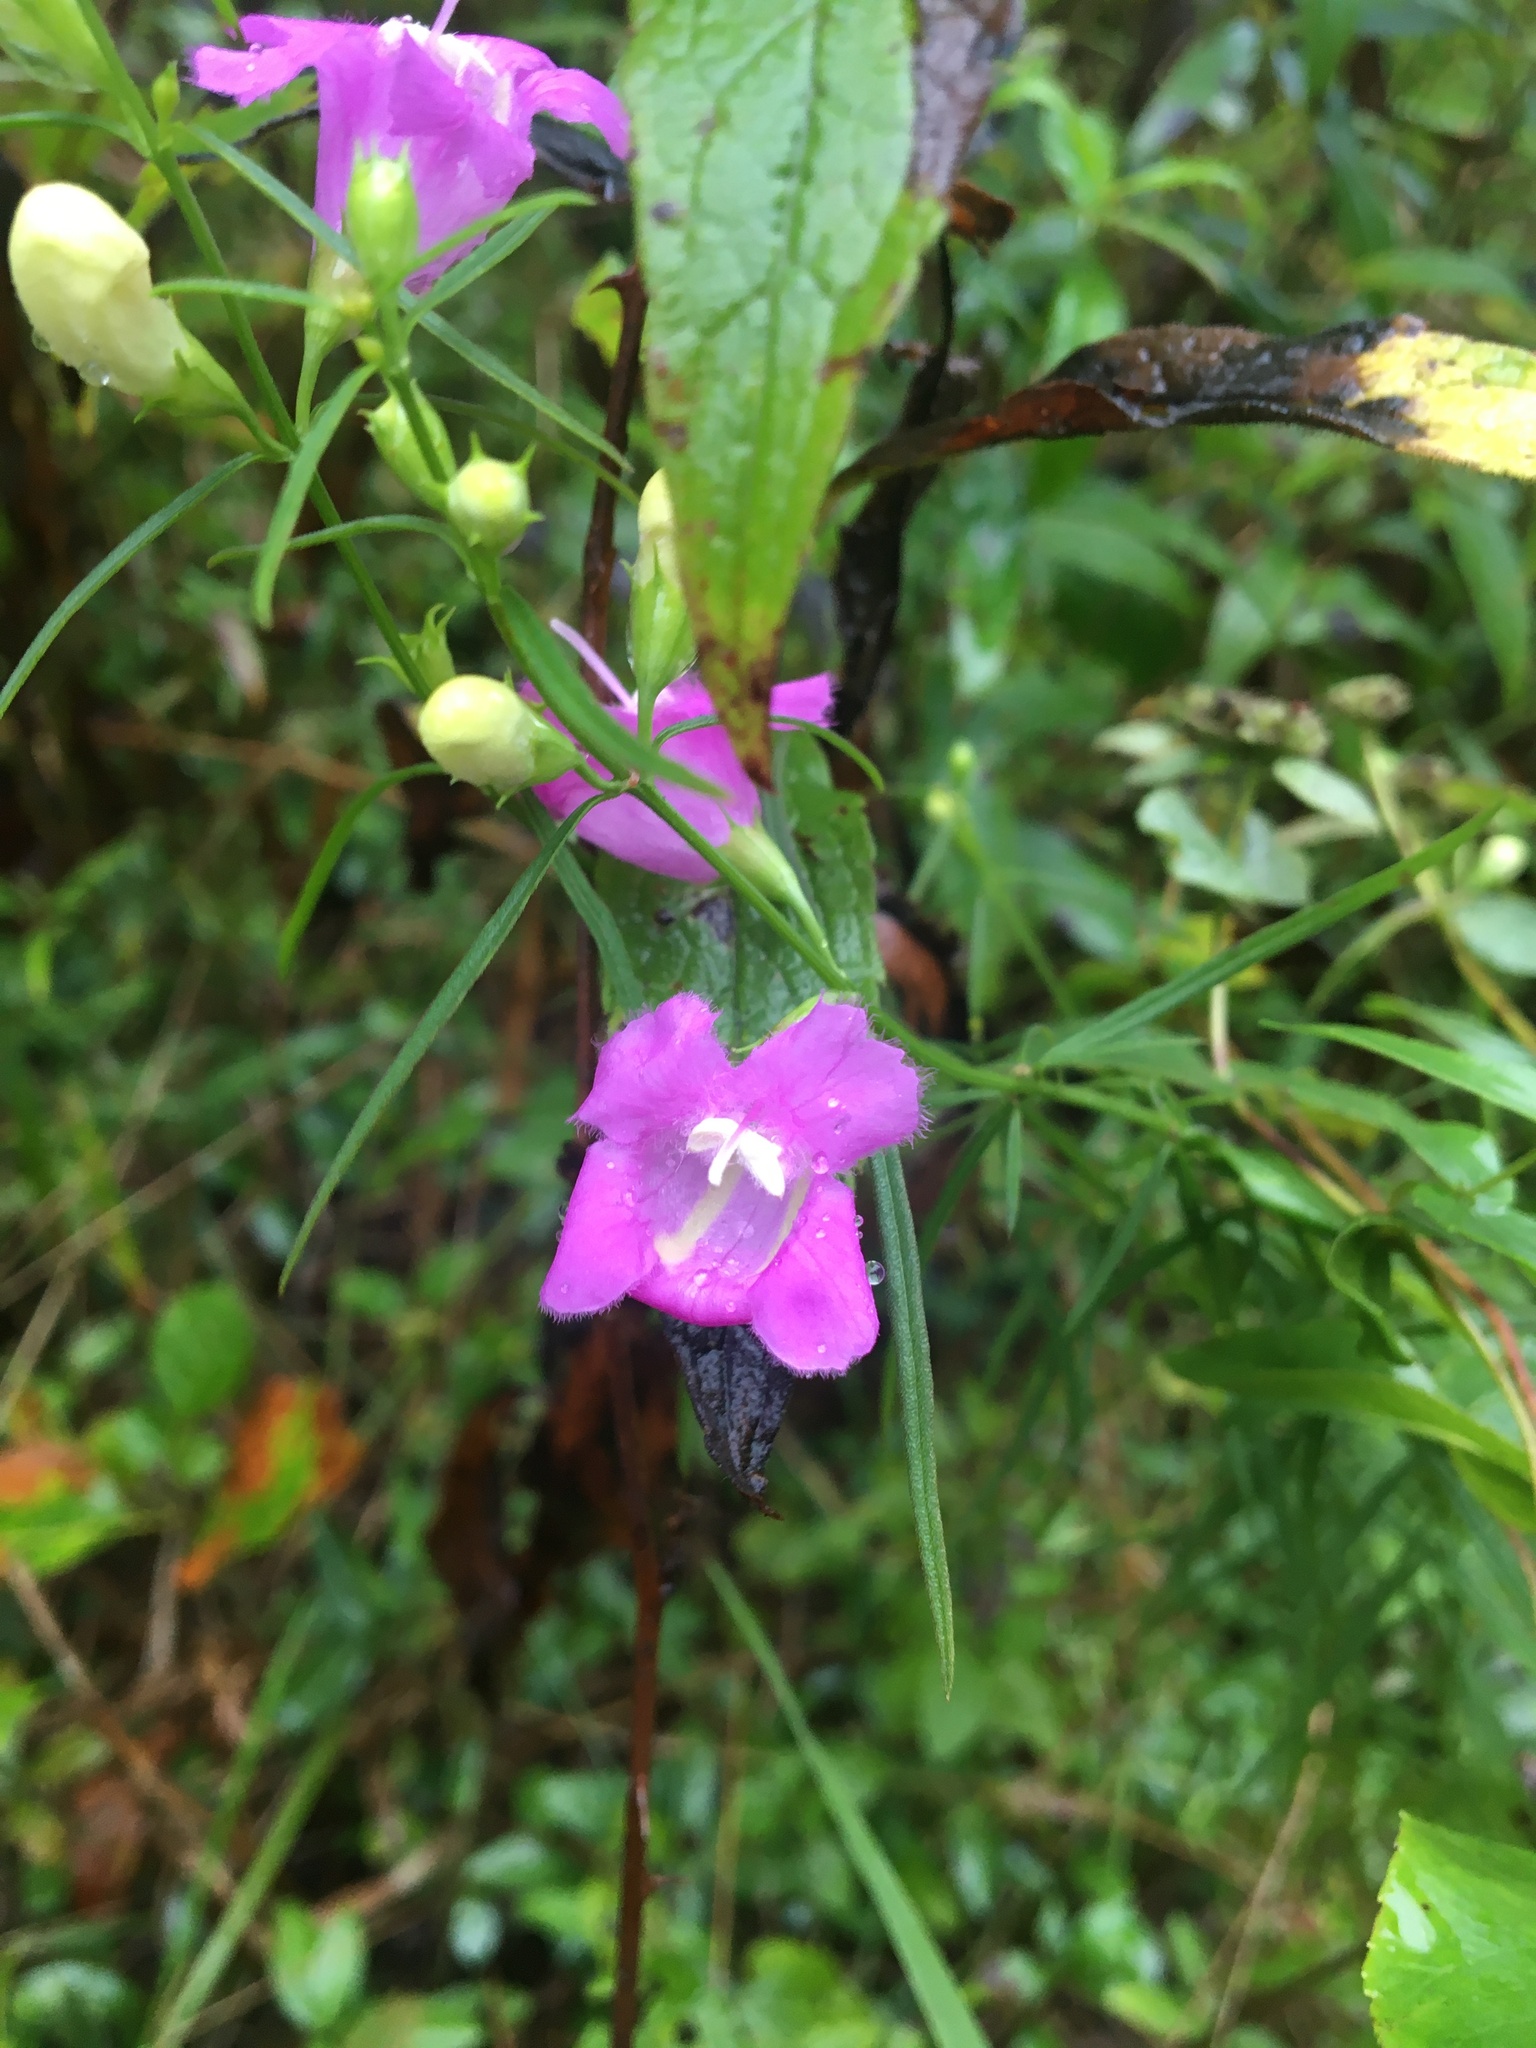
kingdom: Plantae
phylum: Tracheophyta
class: Magnoliopsida
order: Lamiales
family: Orobanchaceae
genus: Agalinis
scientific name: Agalinis purpurea
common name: Purple false foxglove
